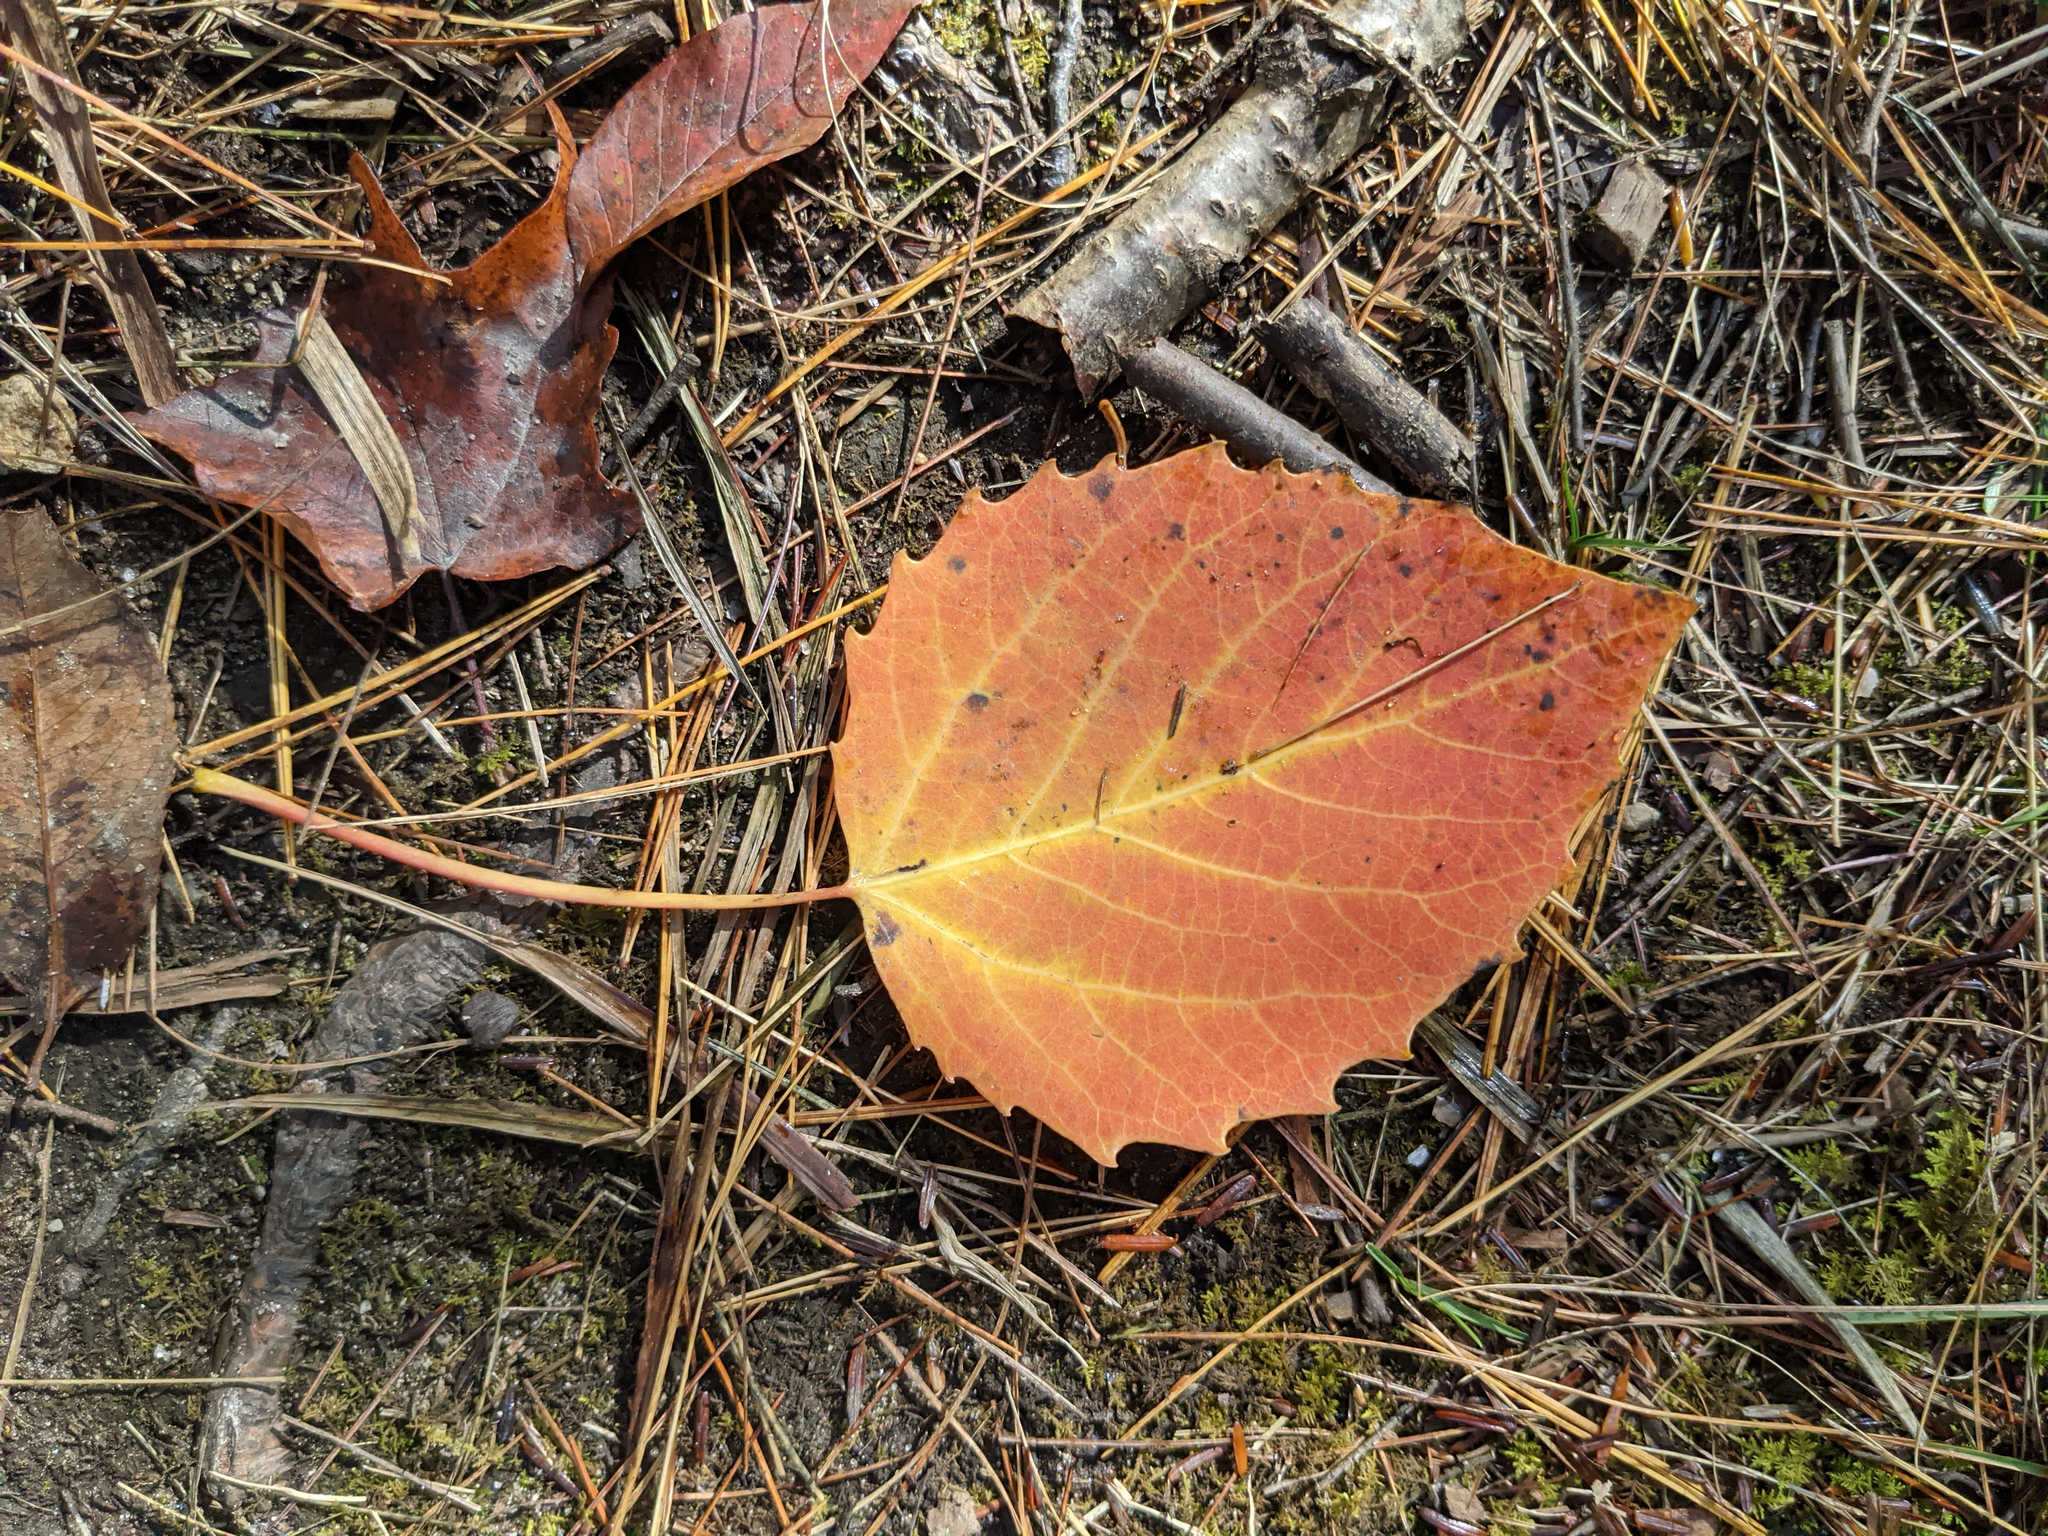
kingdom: Plantae
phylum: Tracheophyta
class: Magnoliopsida
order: Malpighiales
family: Salicaceae
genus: Populus
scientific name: Populus grandidentata
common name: Bigtooth aspen
